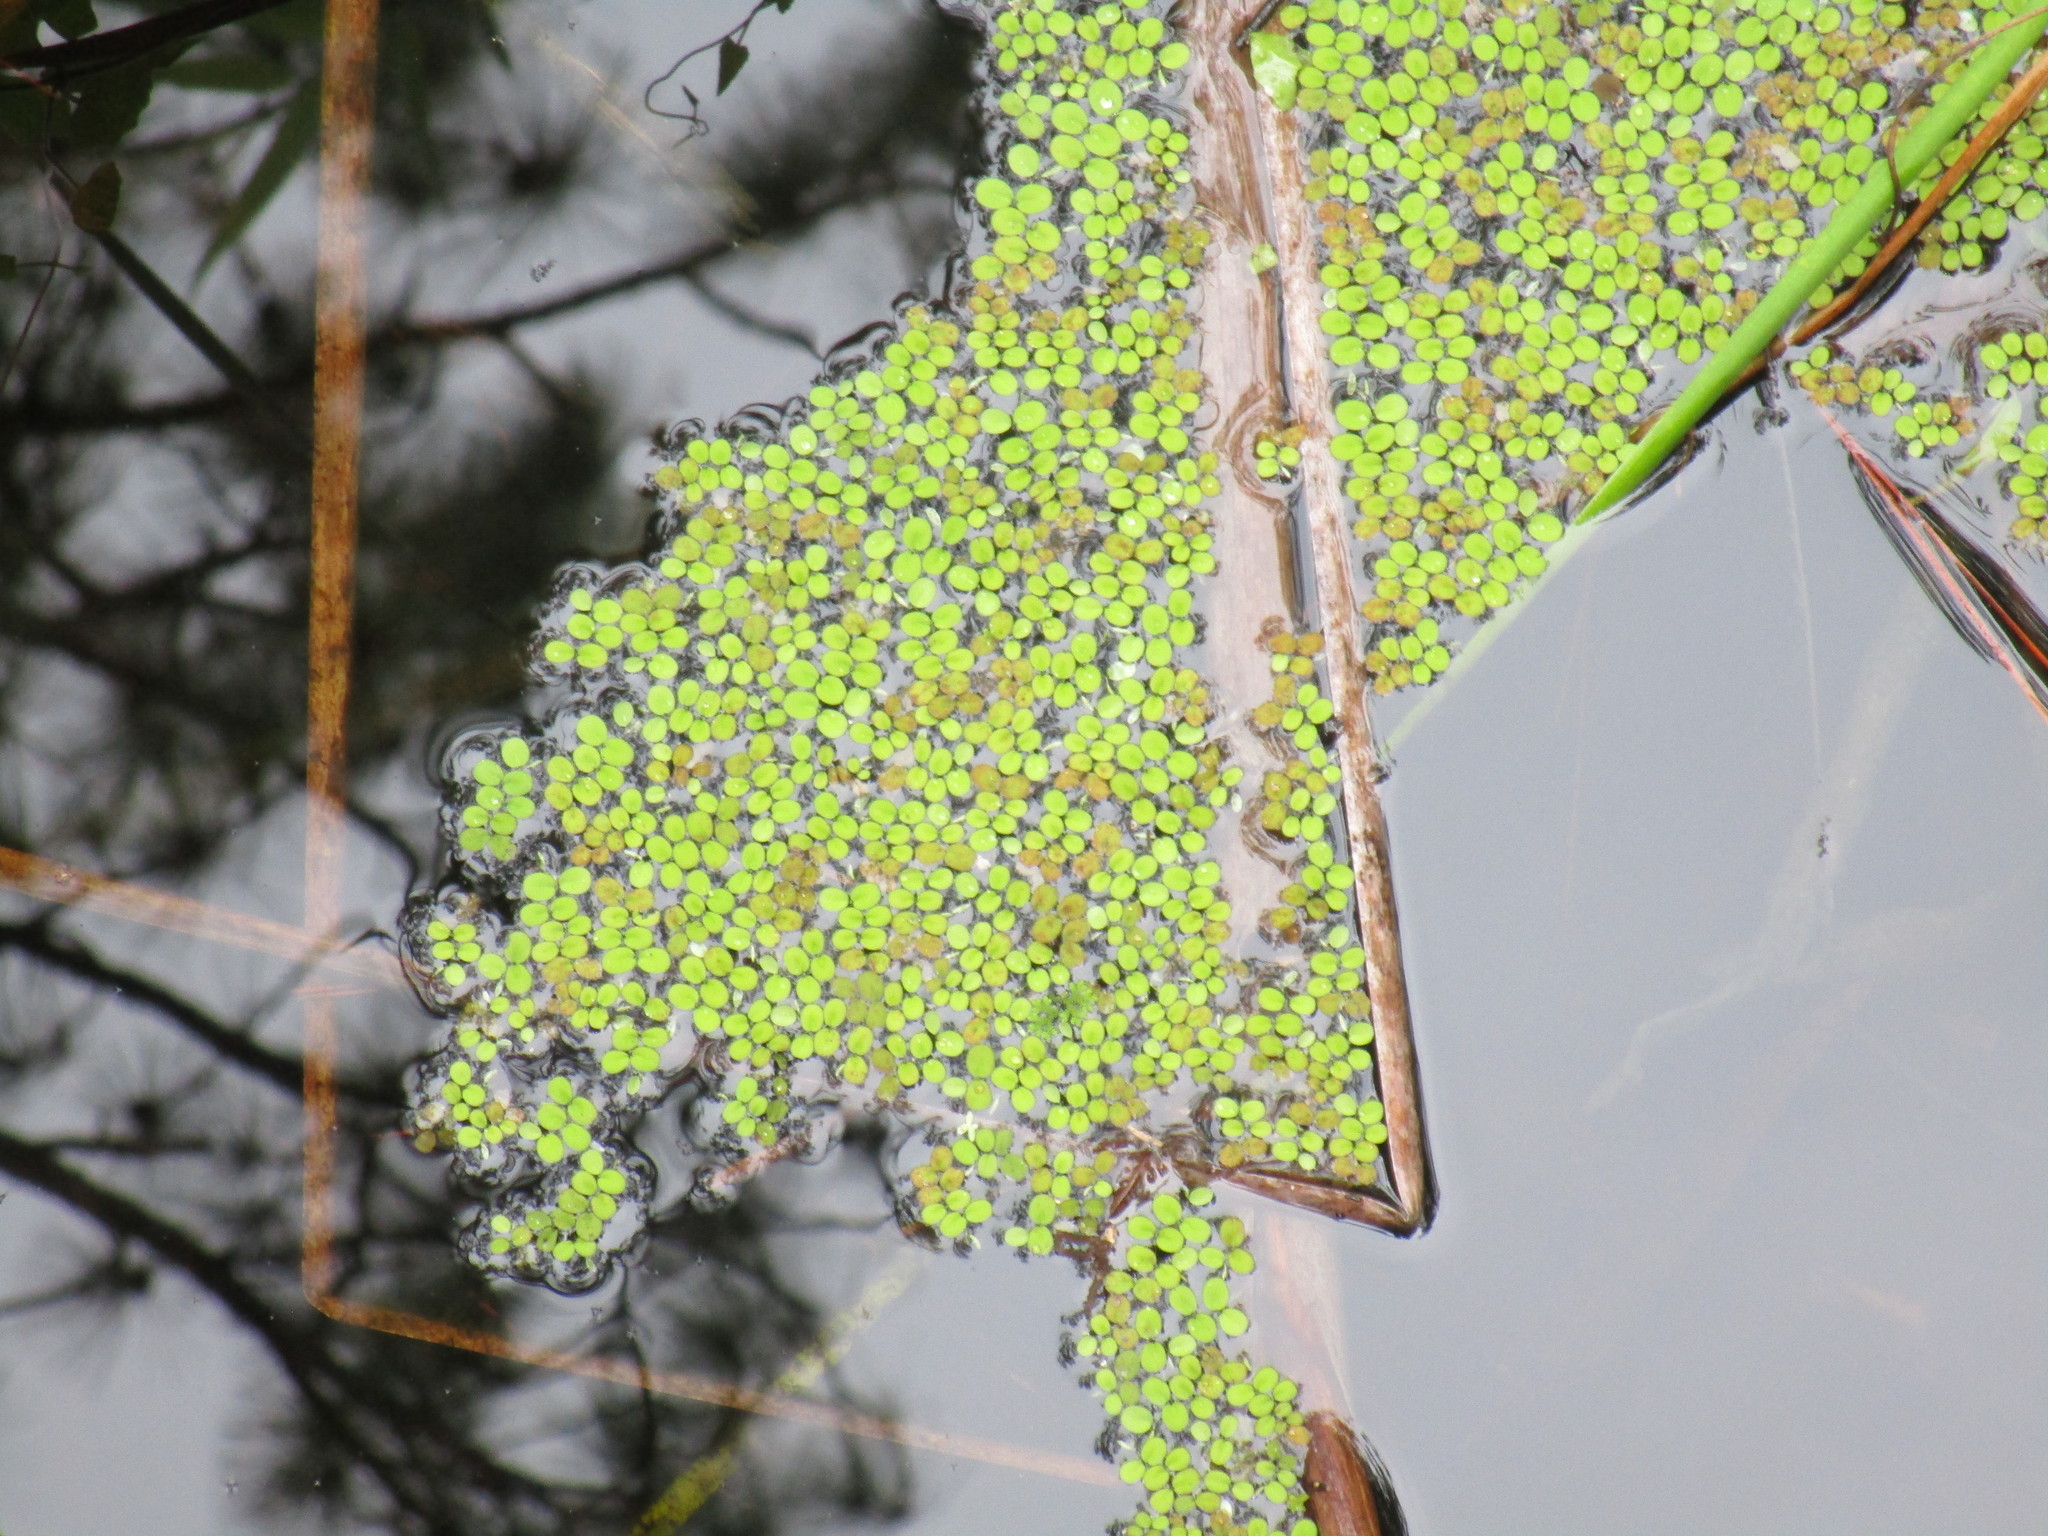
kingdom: Plantae
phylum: Tracheophyta
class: Polypodiopsida
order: Salviniales
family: Salviniaceae
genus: Salvinia
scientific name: Salvinia minima
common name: Water spangles
